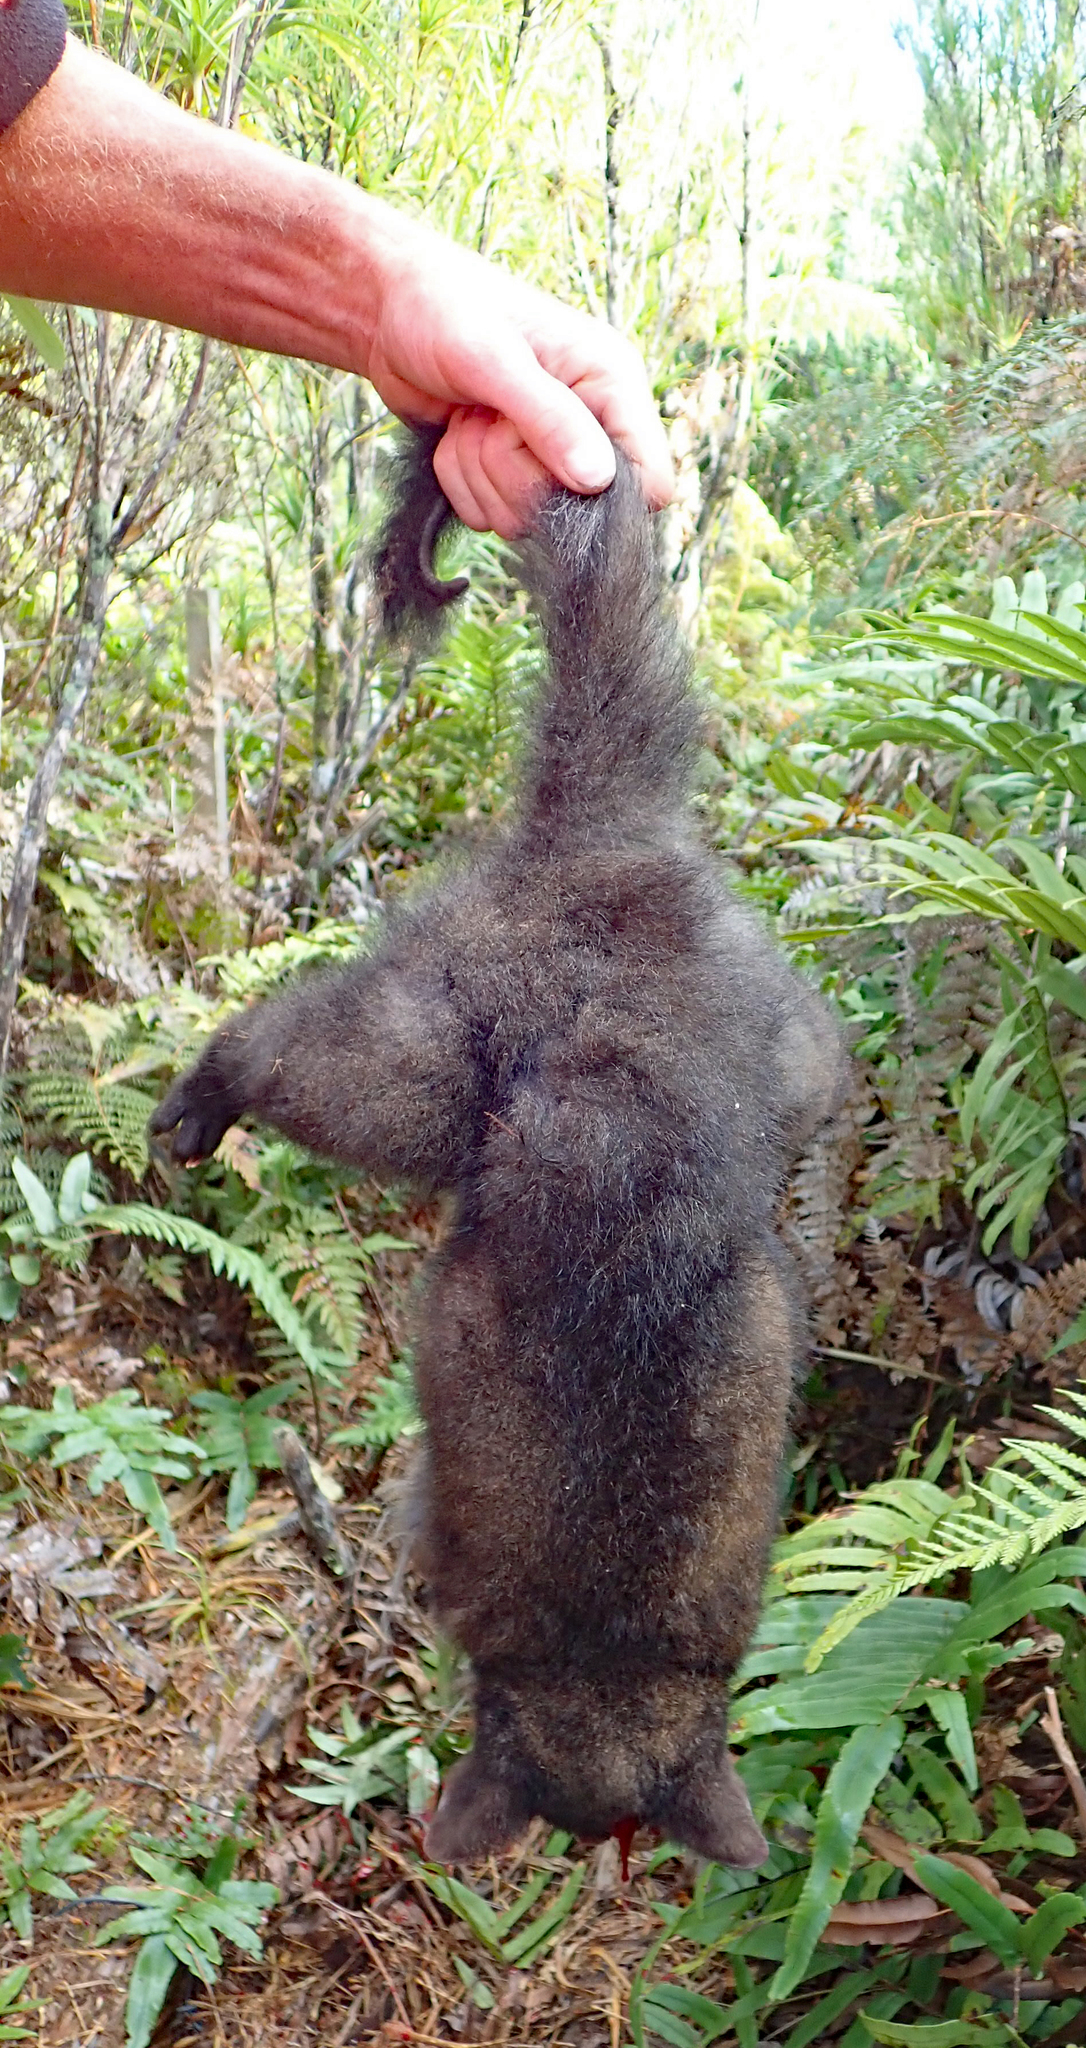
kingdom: Animalia
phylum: Chordata
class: Mammalia
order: Diprotodontia
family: Phalangeridae
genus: Trichosurus
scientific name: Trichosurus vulpecula
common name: Common brushtail
